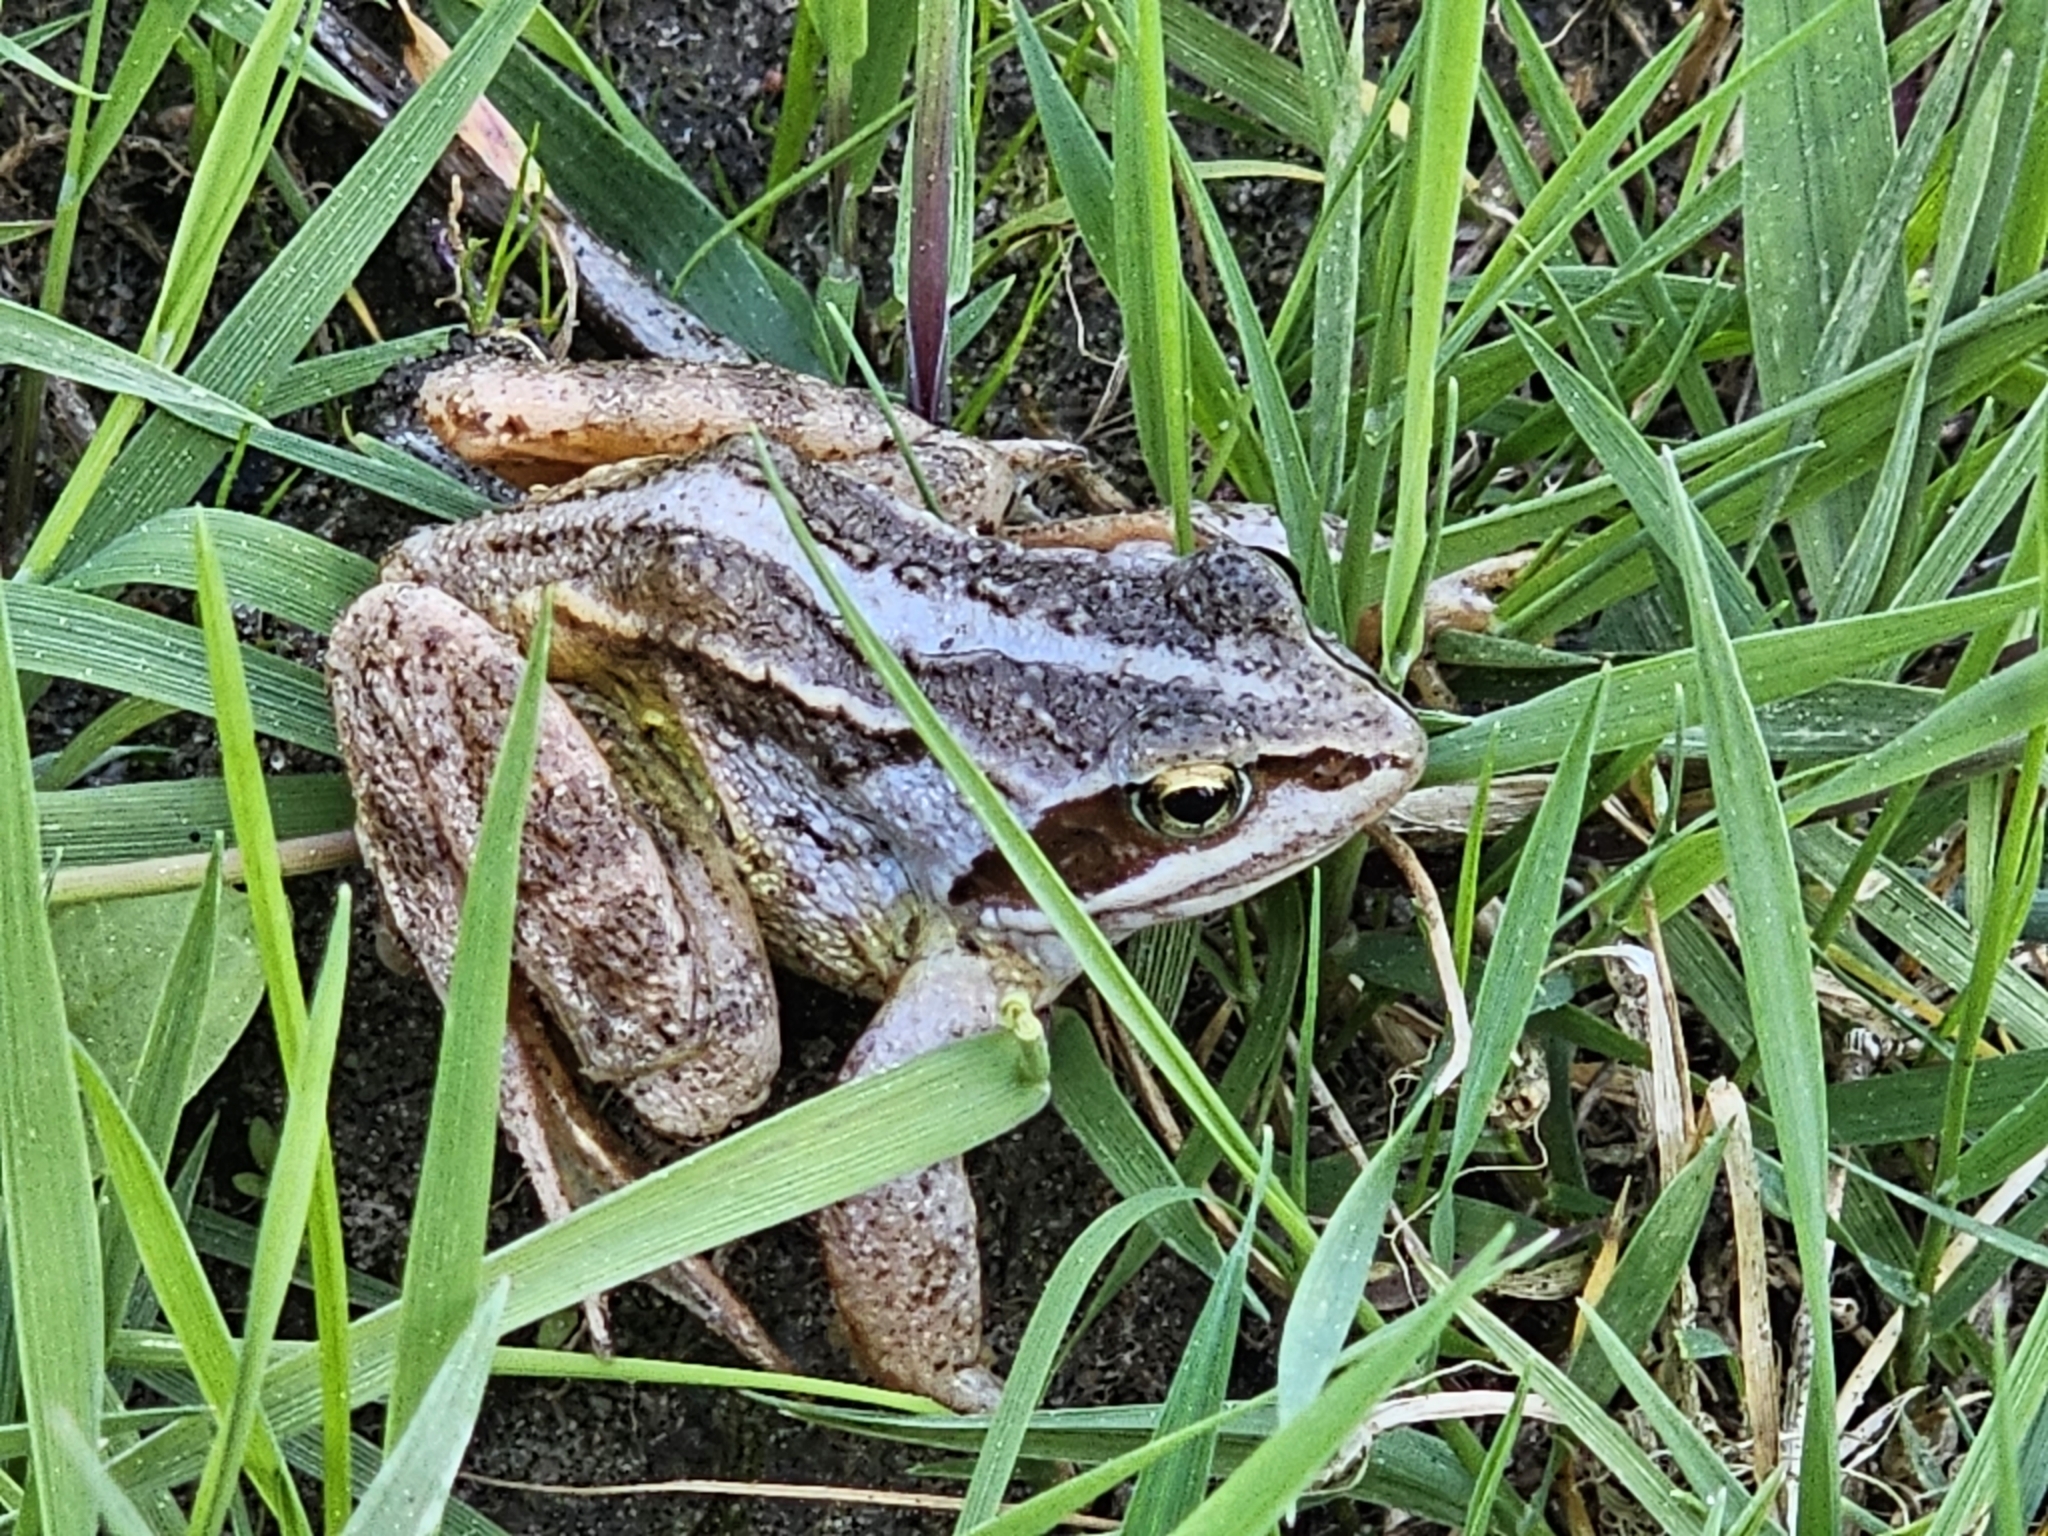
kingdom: Animalia
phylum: Chordata
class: Amphibia
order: Anura
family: Ranidae
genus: Rana
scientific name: Rana arvalis
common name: Moor frog
